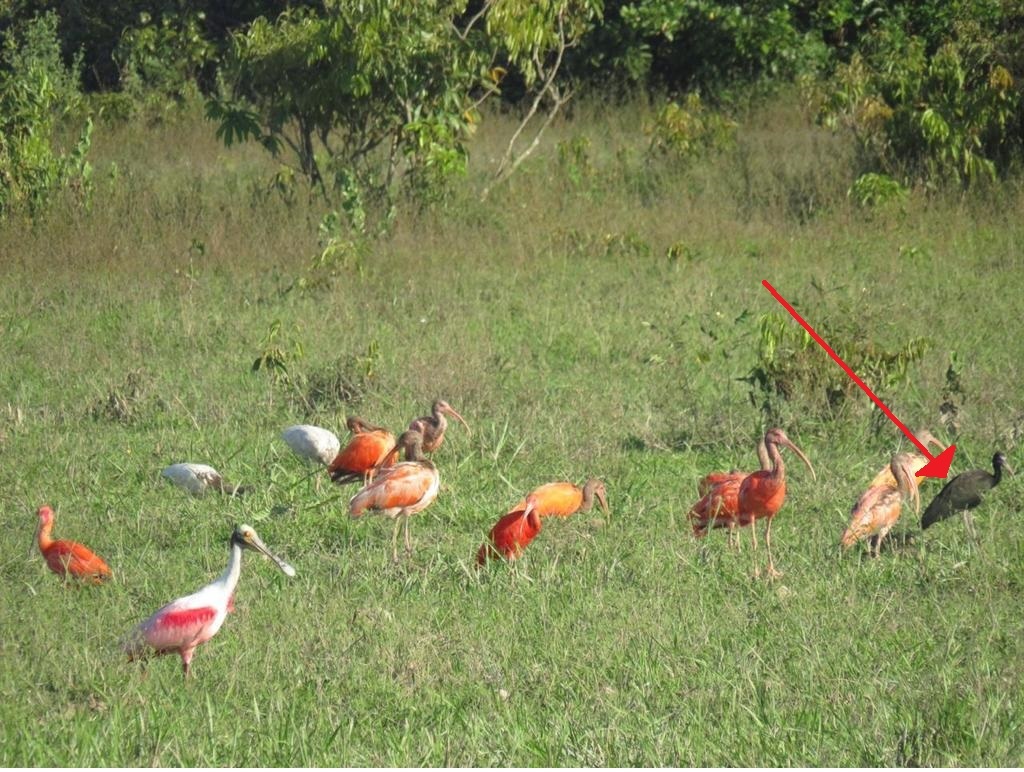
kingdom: Animalia
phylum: Chordata
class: Aves
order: Pelecaniformes
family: Threskiornithidae
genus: Mesembrinibis
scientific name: Mesembrinibis cayennensis
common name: Green ibis
